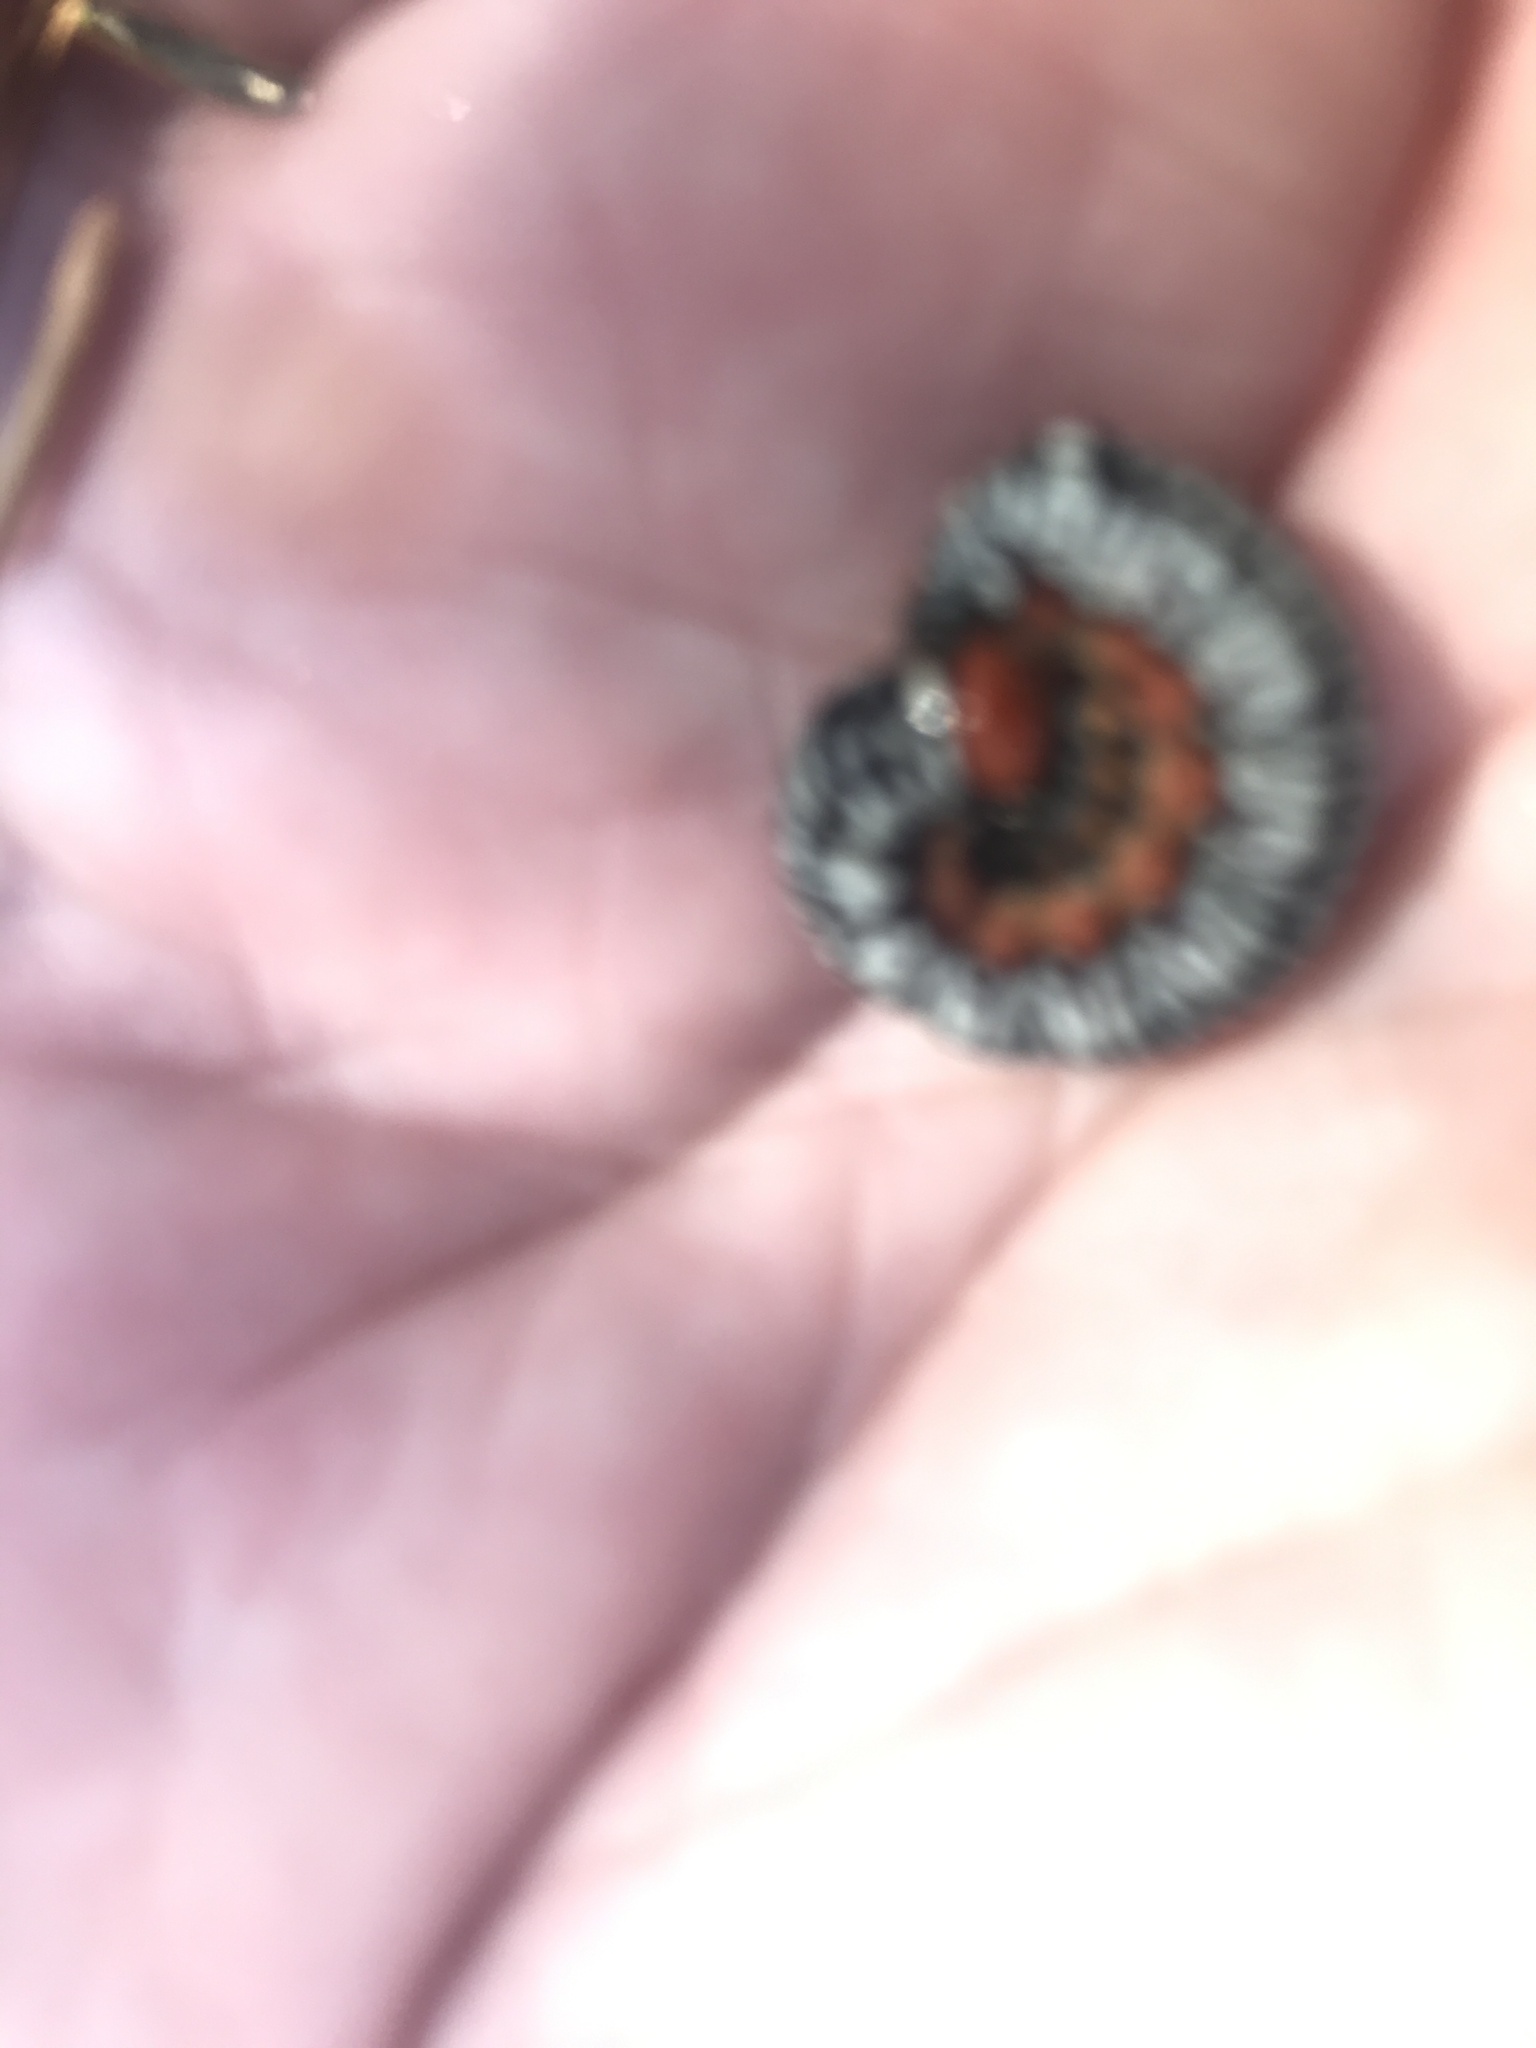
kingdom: Animalia
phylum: Arthropoda
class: Insecta
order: Lepidoptera
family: Erebidae
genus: Diphthera
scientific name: Diphthera festiva
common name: Hieroglyphic moth
